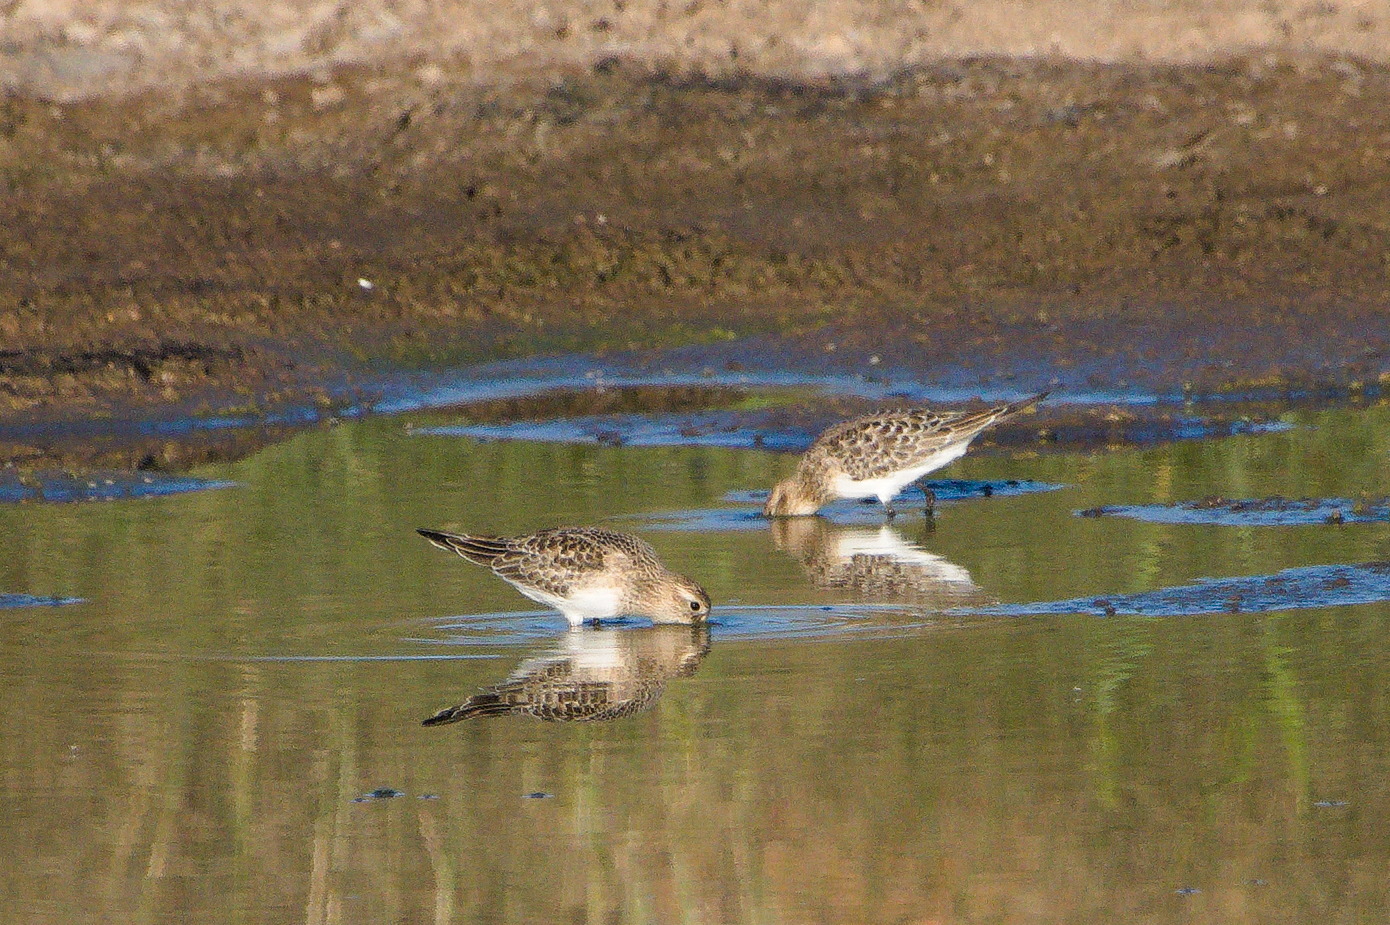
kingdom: Animalia
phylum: Chordata
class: Aves
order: Charadriiformes
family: Scolopacidae
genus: Calidris
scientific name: Calidris bairdii
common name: Baird's sandpiper
